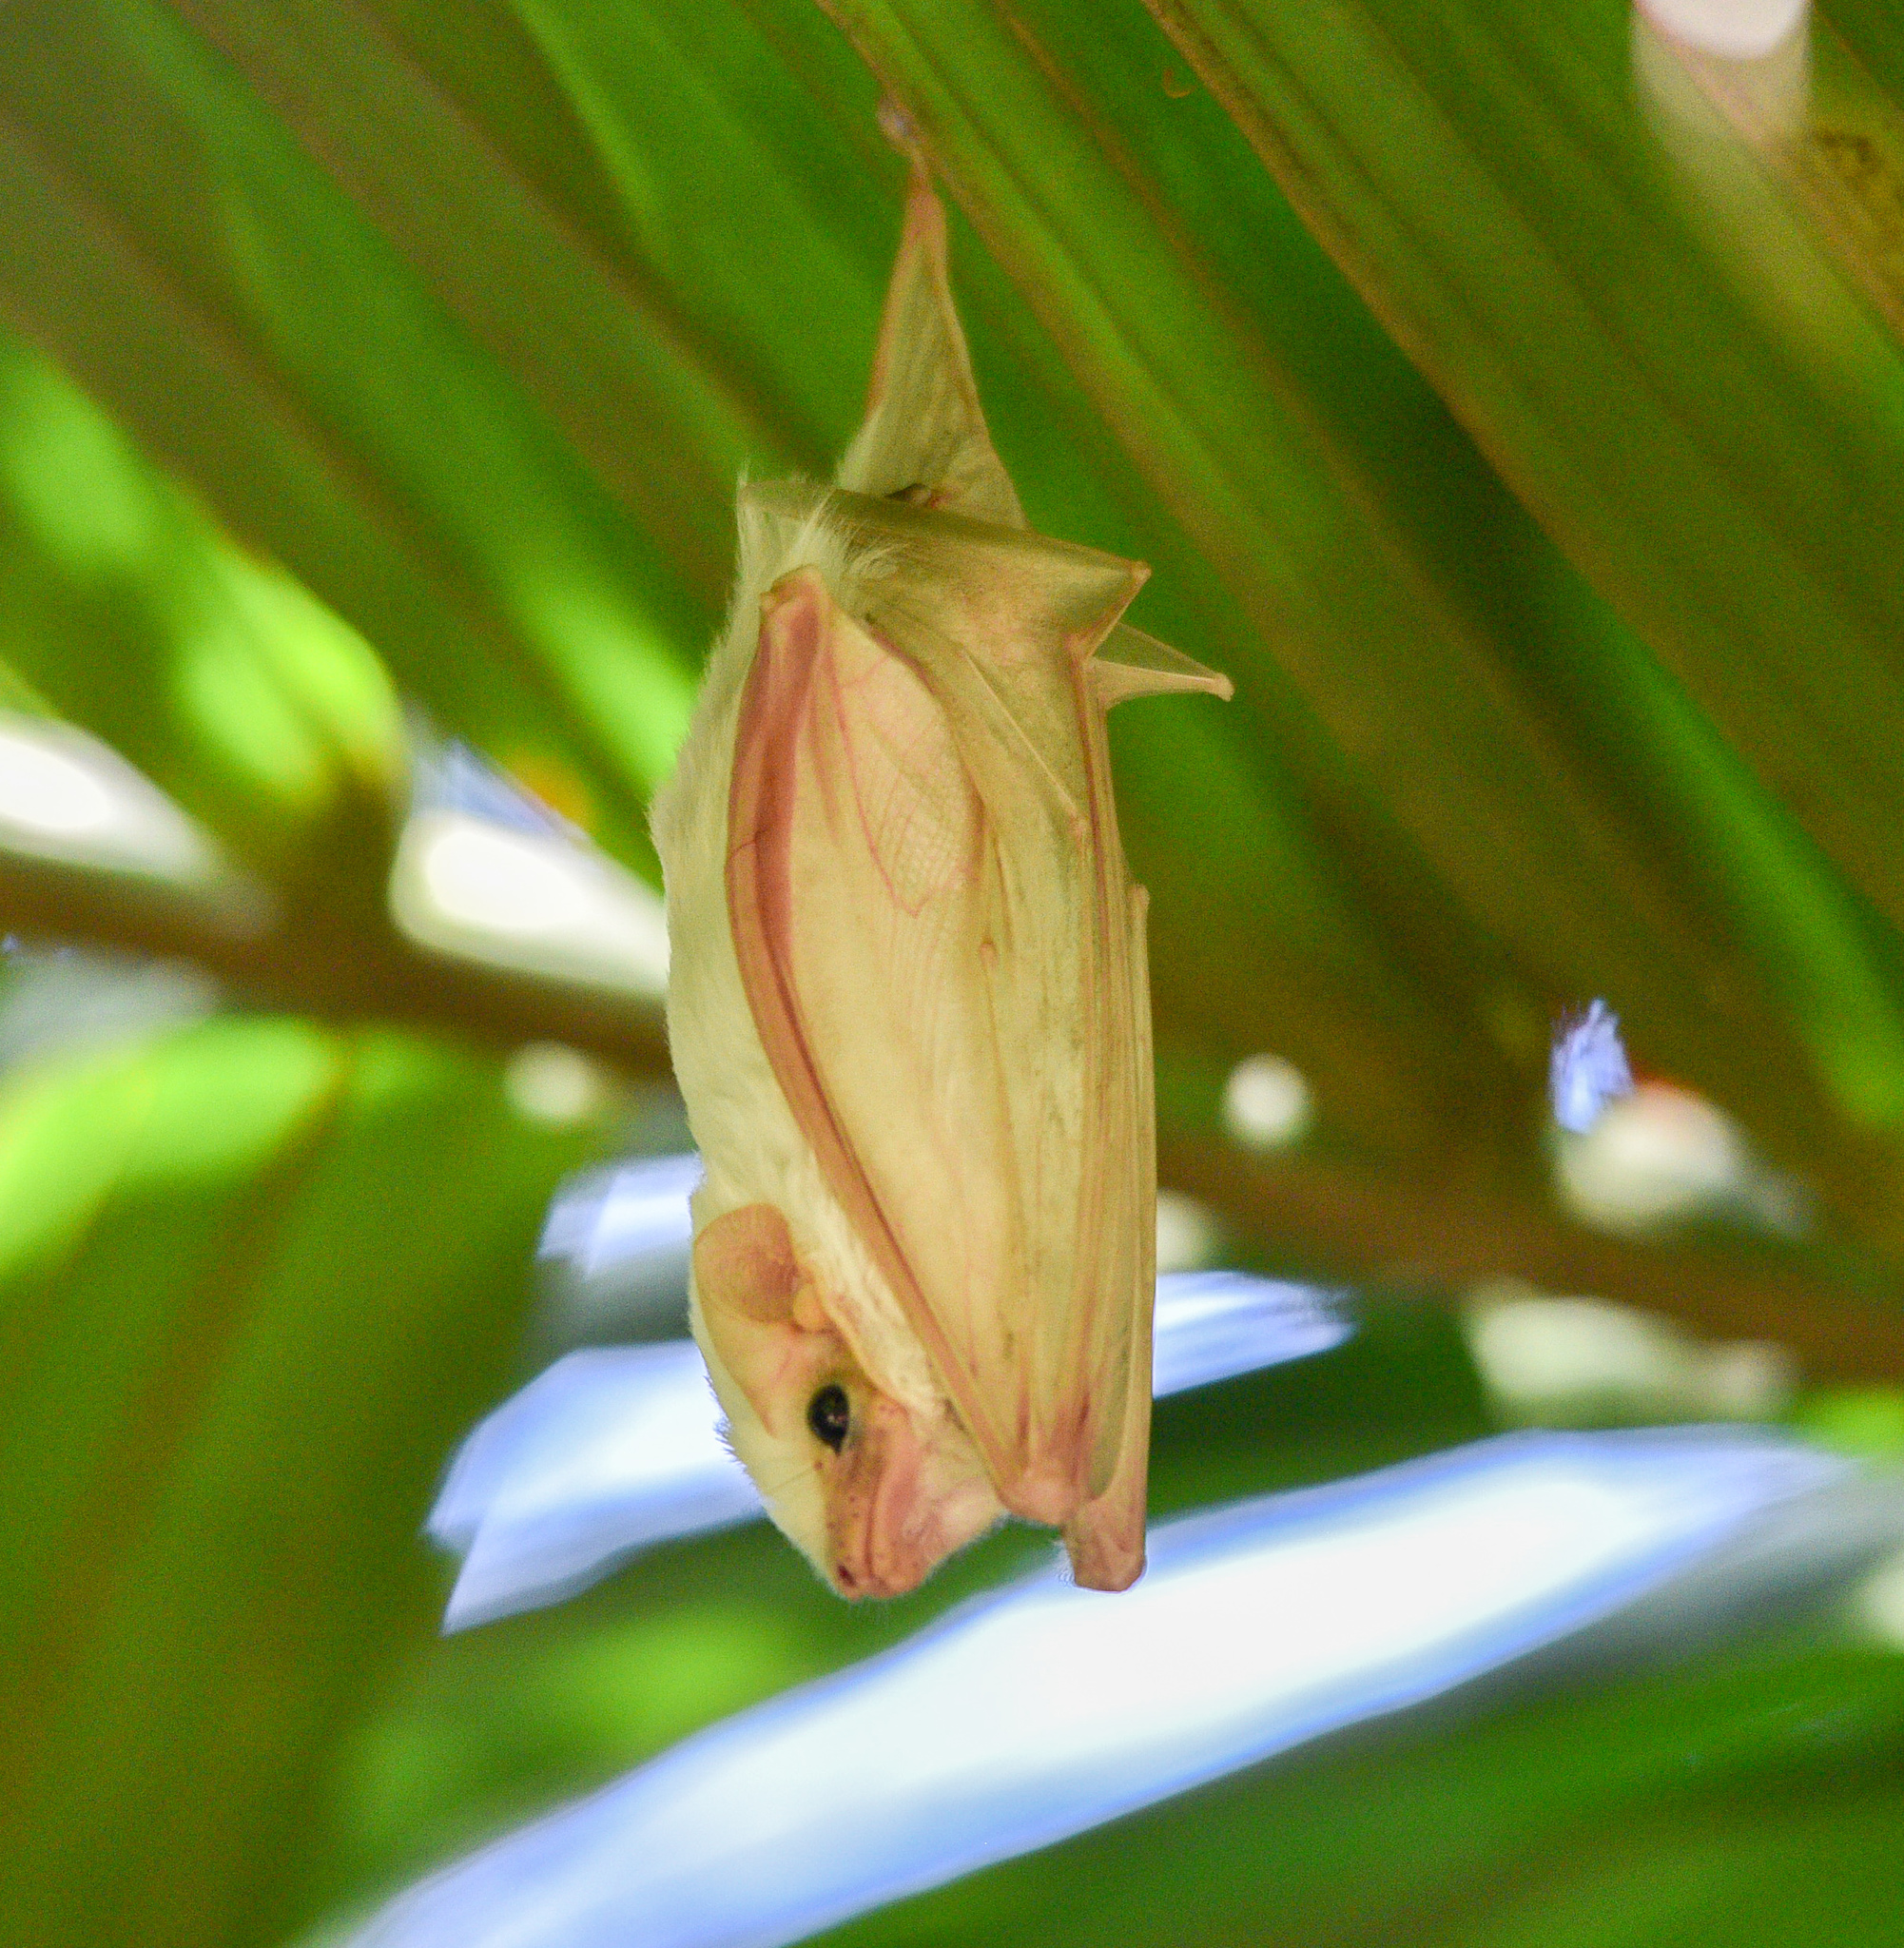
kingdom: Animalia
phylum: Chordata
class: Mammalia
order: Chiroptera
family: Emballonuridae
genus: Diclidurus
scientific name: Diclidurus albus
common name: Northern ghost bat
